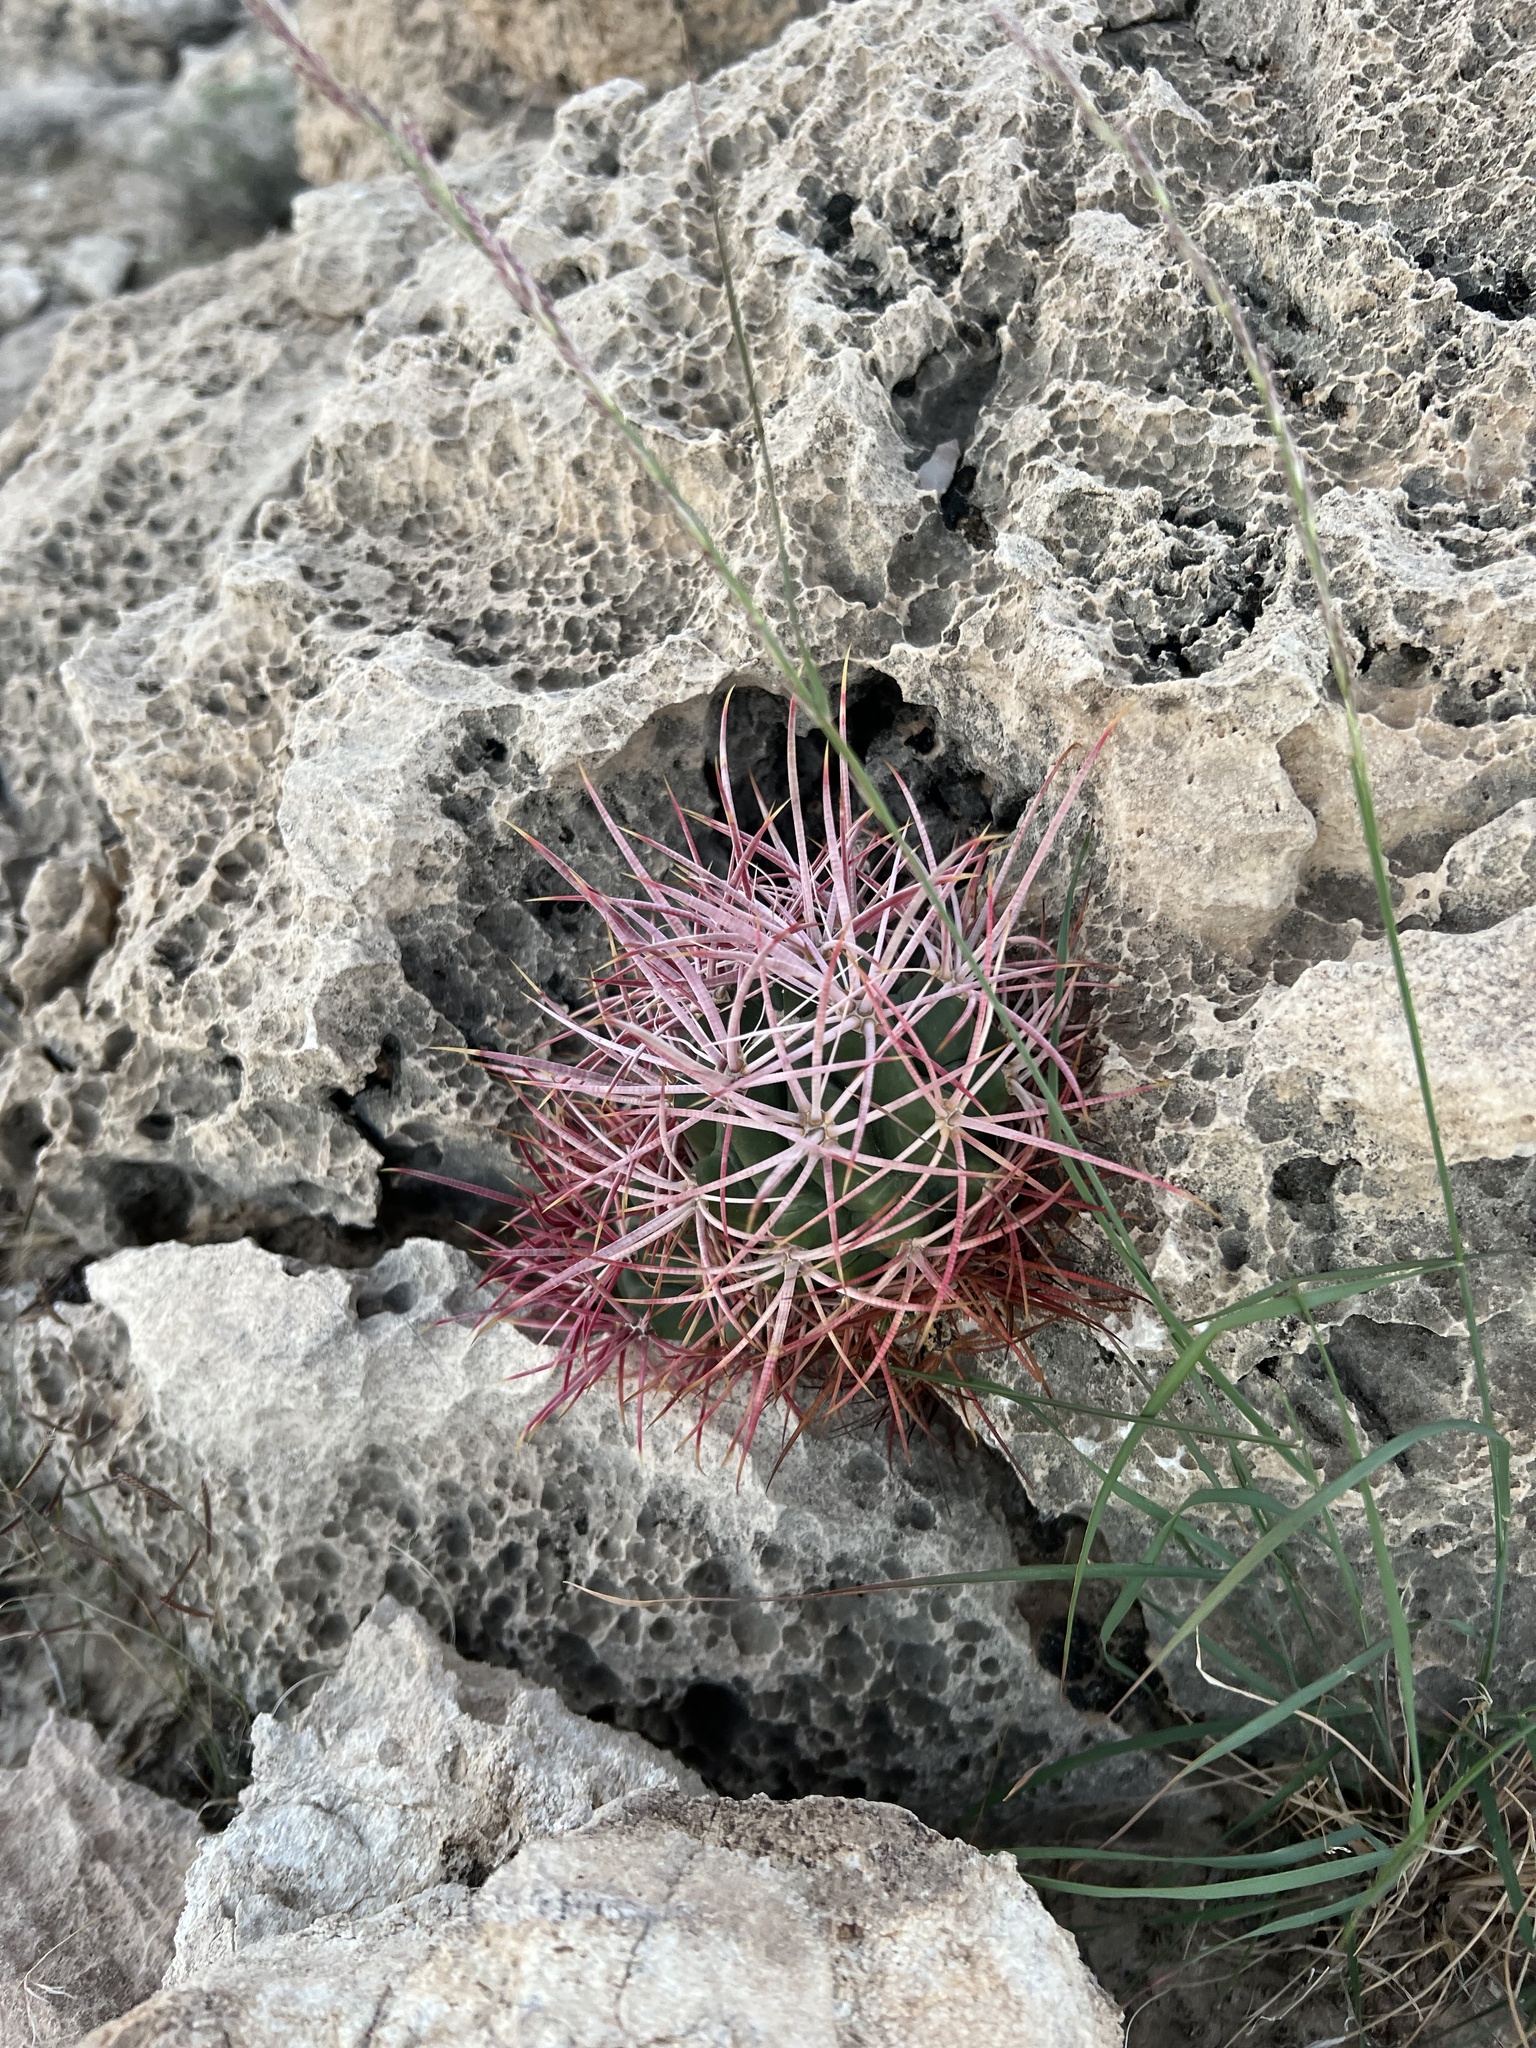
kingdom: Plantae
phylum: Tracheophyta
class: Magnoliopsida
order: Caryophyllales
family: Cactaceae
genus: Ferocactus
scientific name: Ferocactus cylindraceus
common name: California barrel cactus
